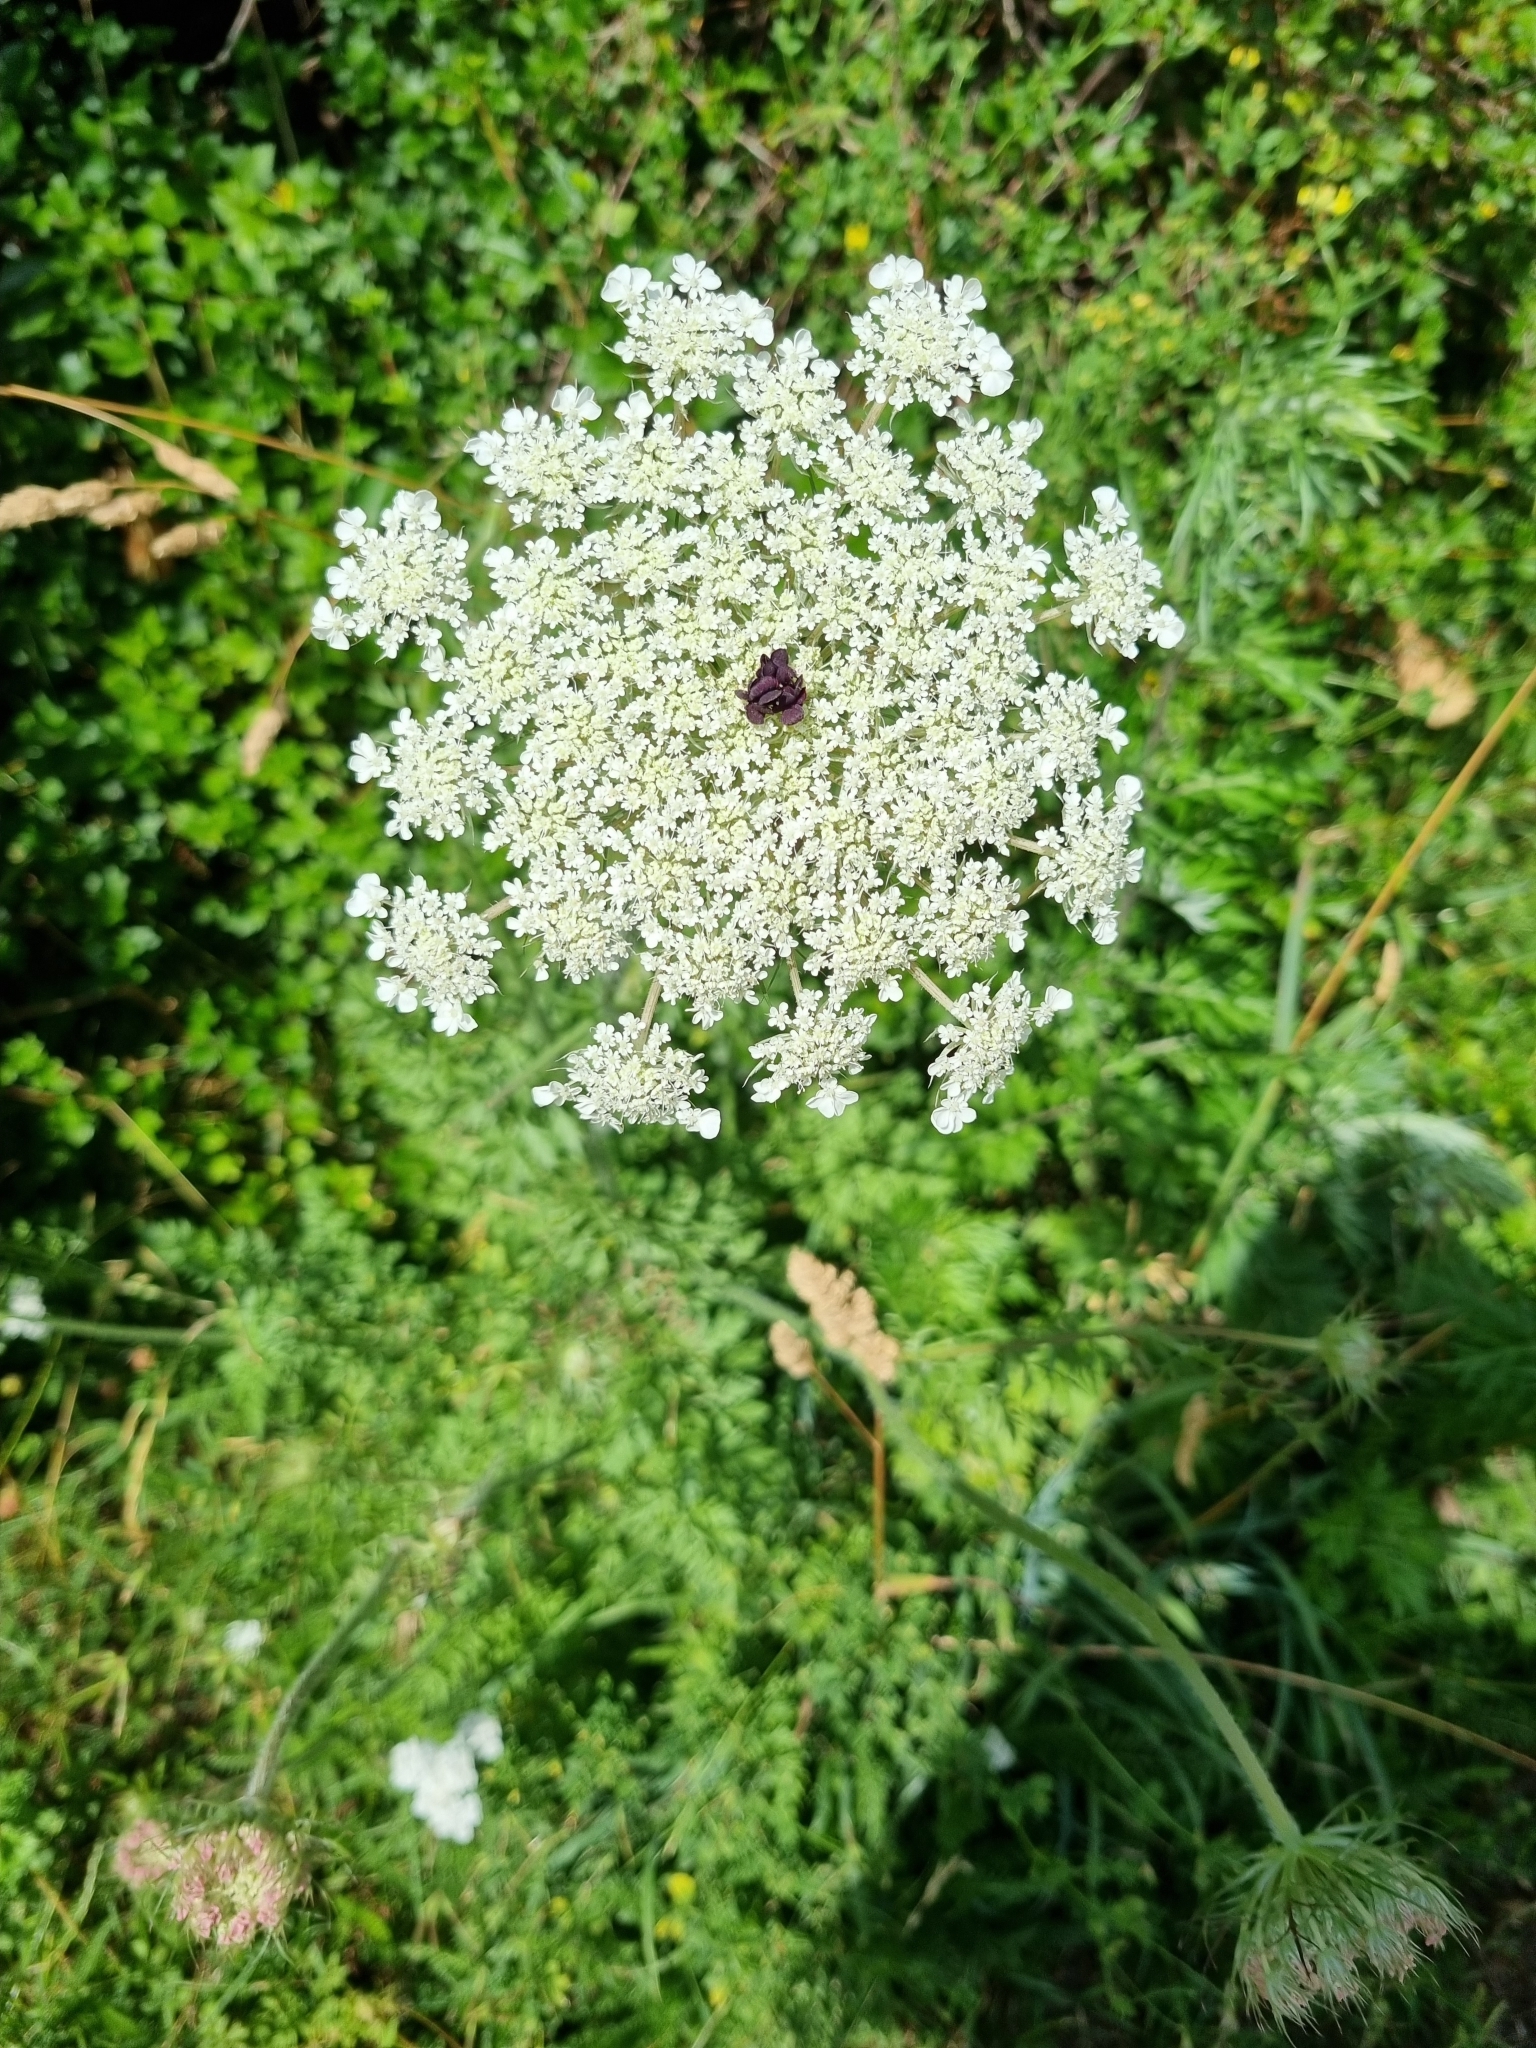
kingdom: Plantae
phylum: Tracheophyta
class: Magnoliopsida
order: Apiales
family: Apiaceae
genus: Daucus
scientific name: Daucus carota
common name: Wild carrot
